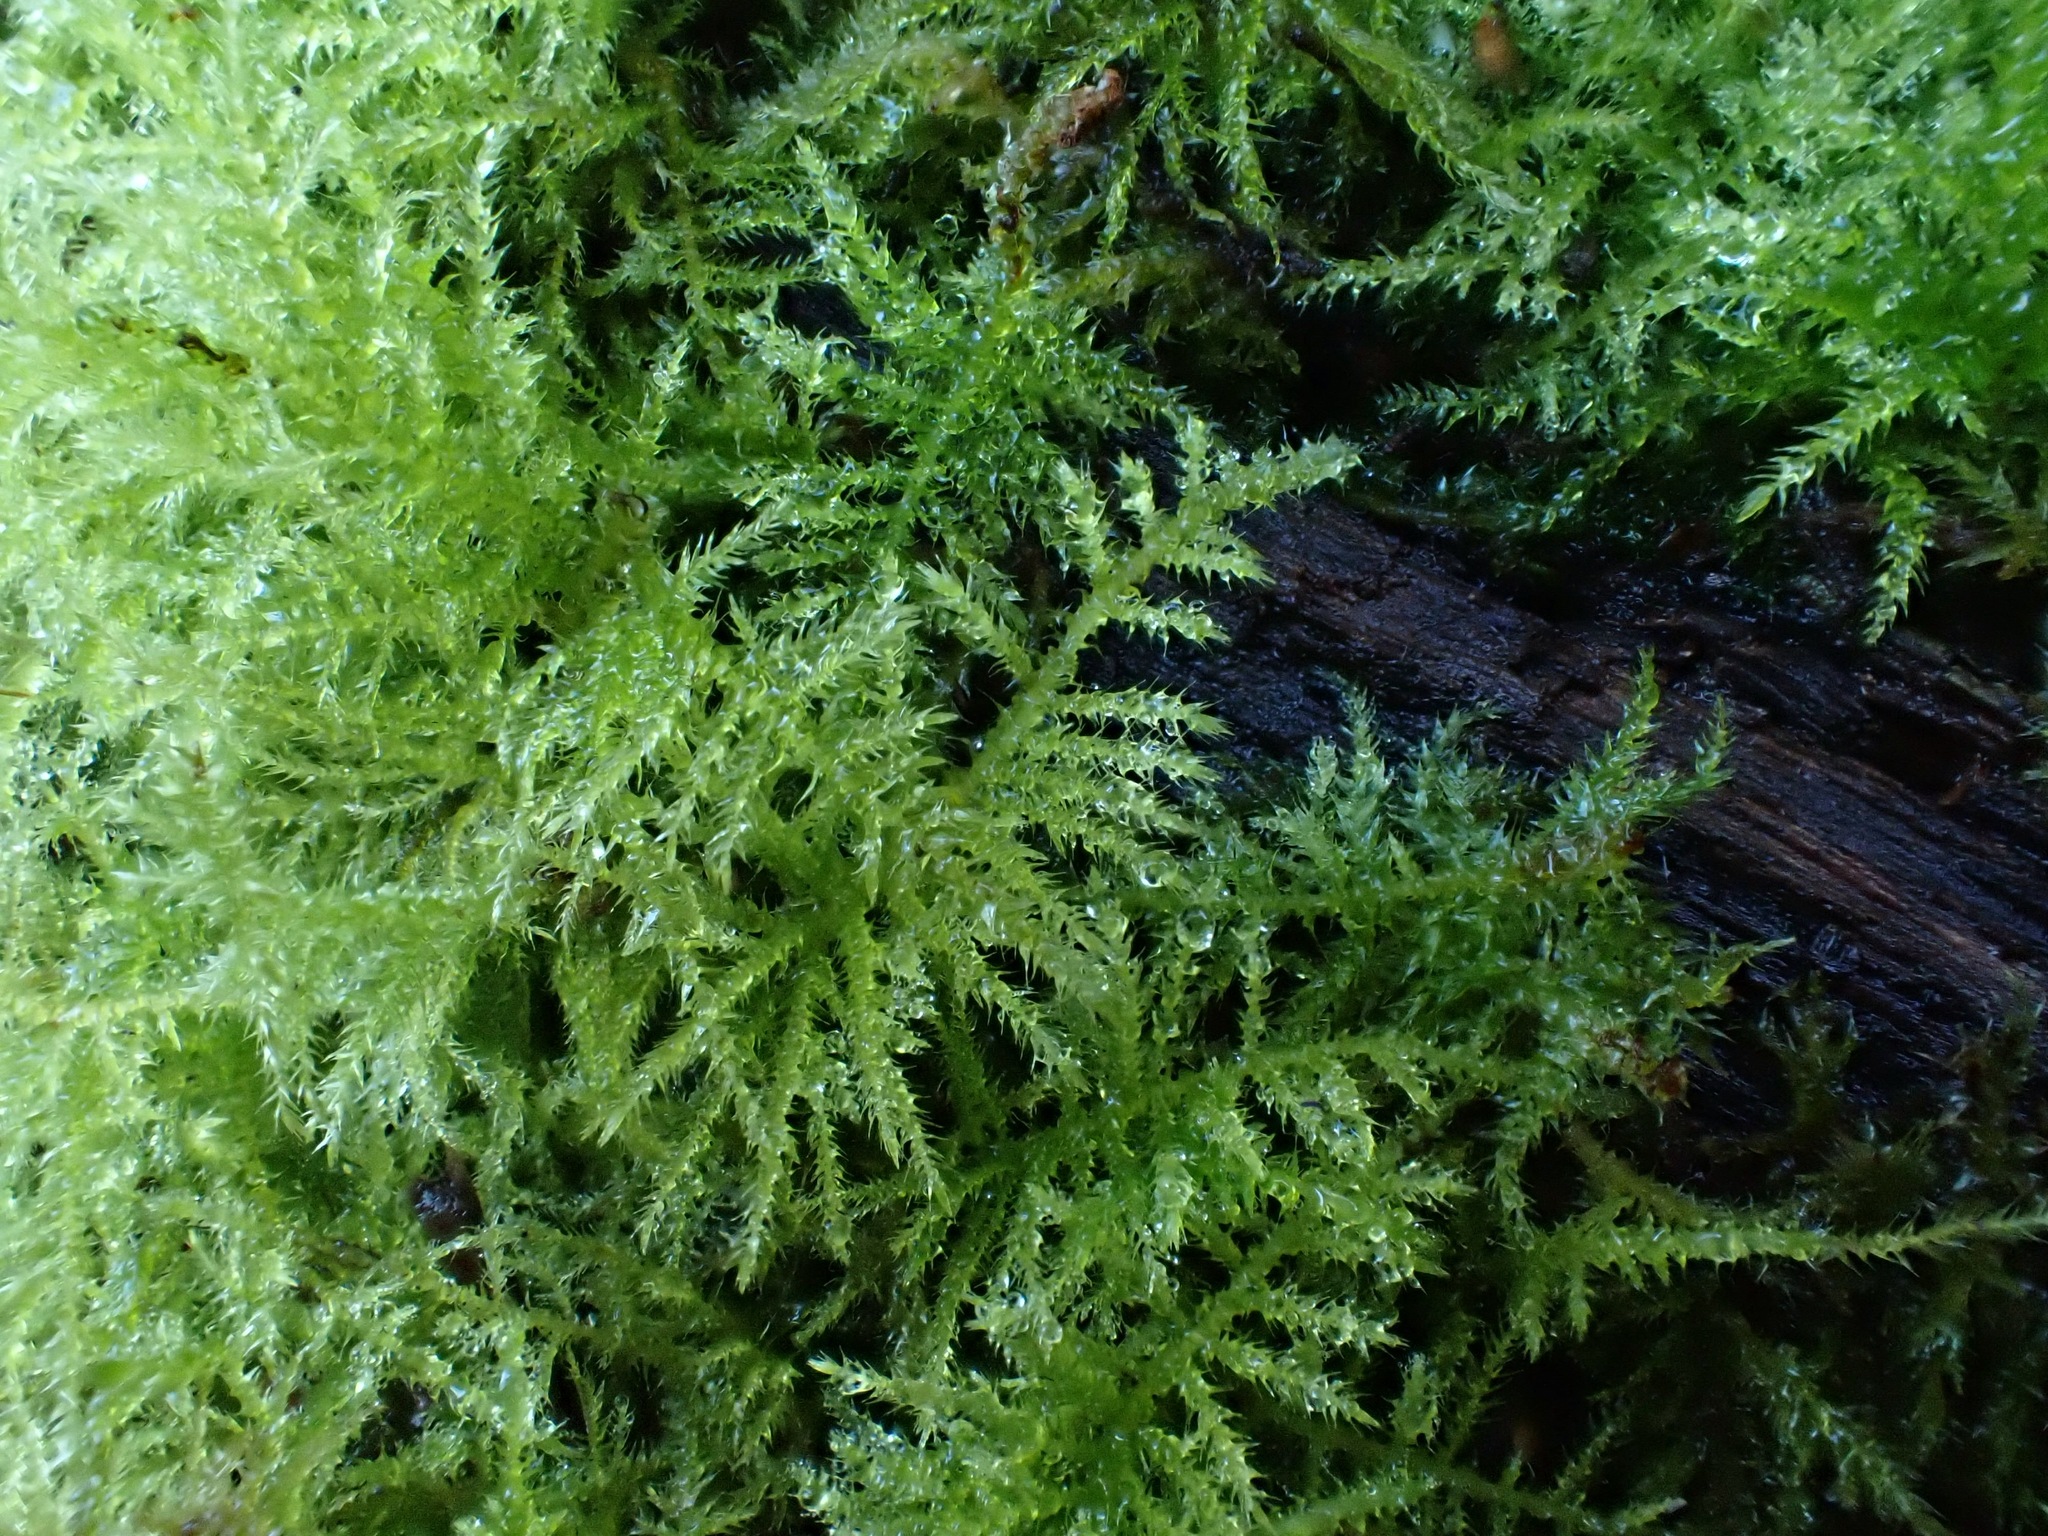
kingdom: Plantae
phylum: Bryophyta
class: Bryopsida
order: Hypnales
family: Brachytheciaceae
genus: Kindbergia
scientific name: Kindbergia praelonga
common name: Slender beaked moss
